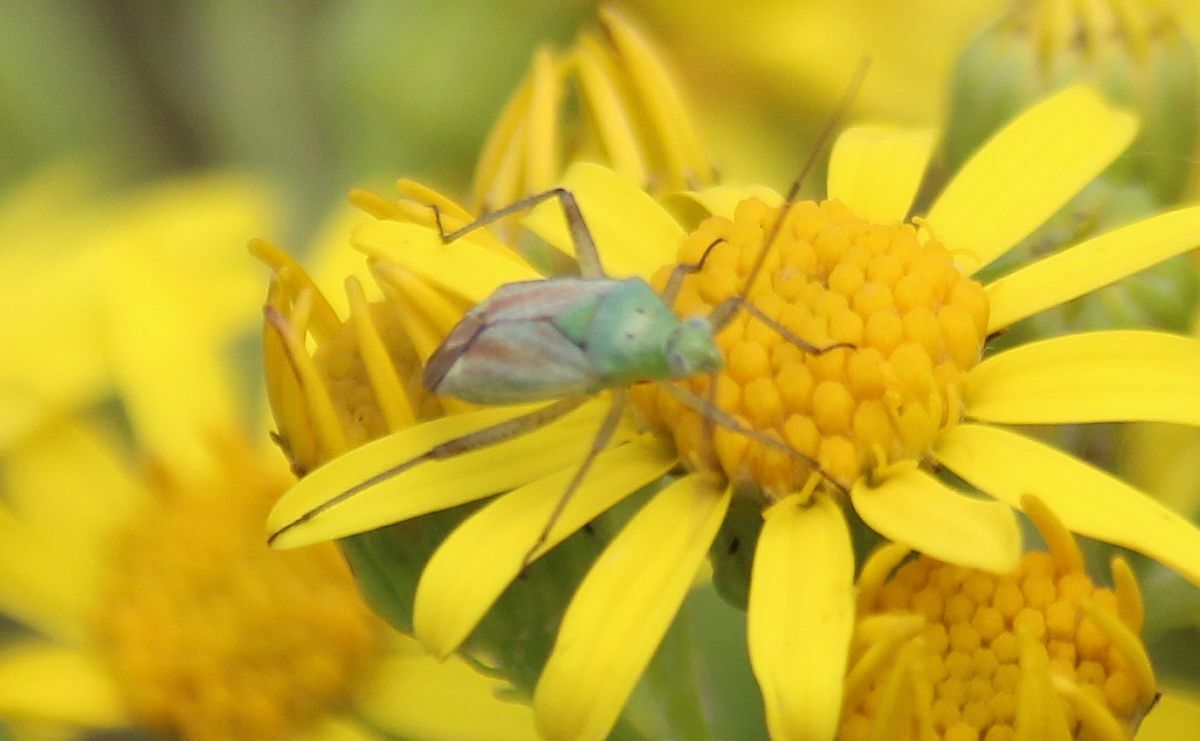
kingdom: Animalia
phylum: Arthropoda
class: Insecta
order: Hemiptera
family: Miridae
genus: Closterotomus
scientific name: Closterotomus norvegicus
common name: Plant bug
